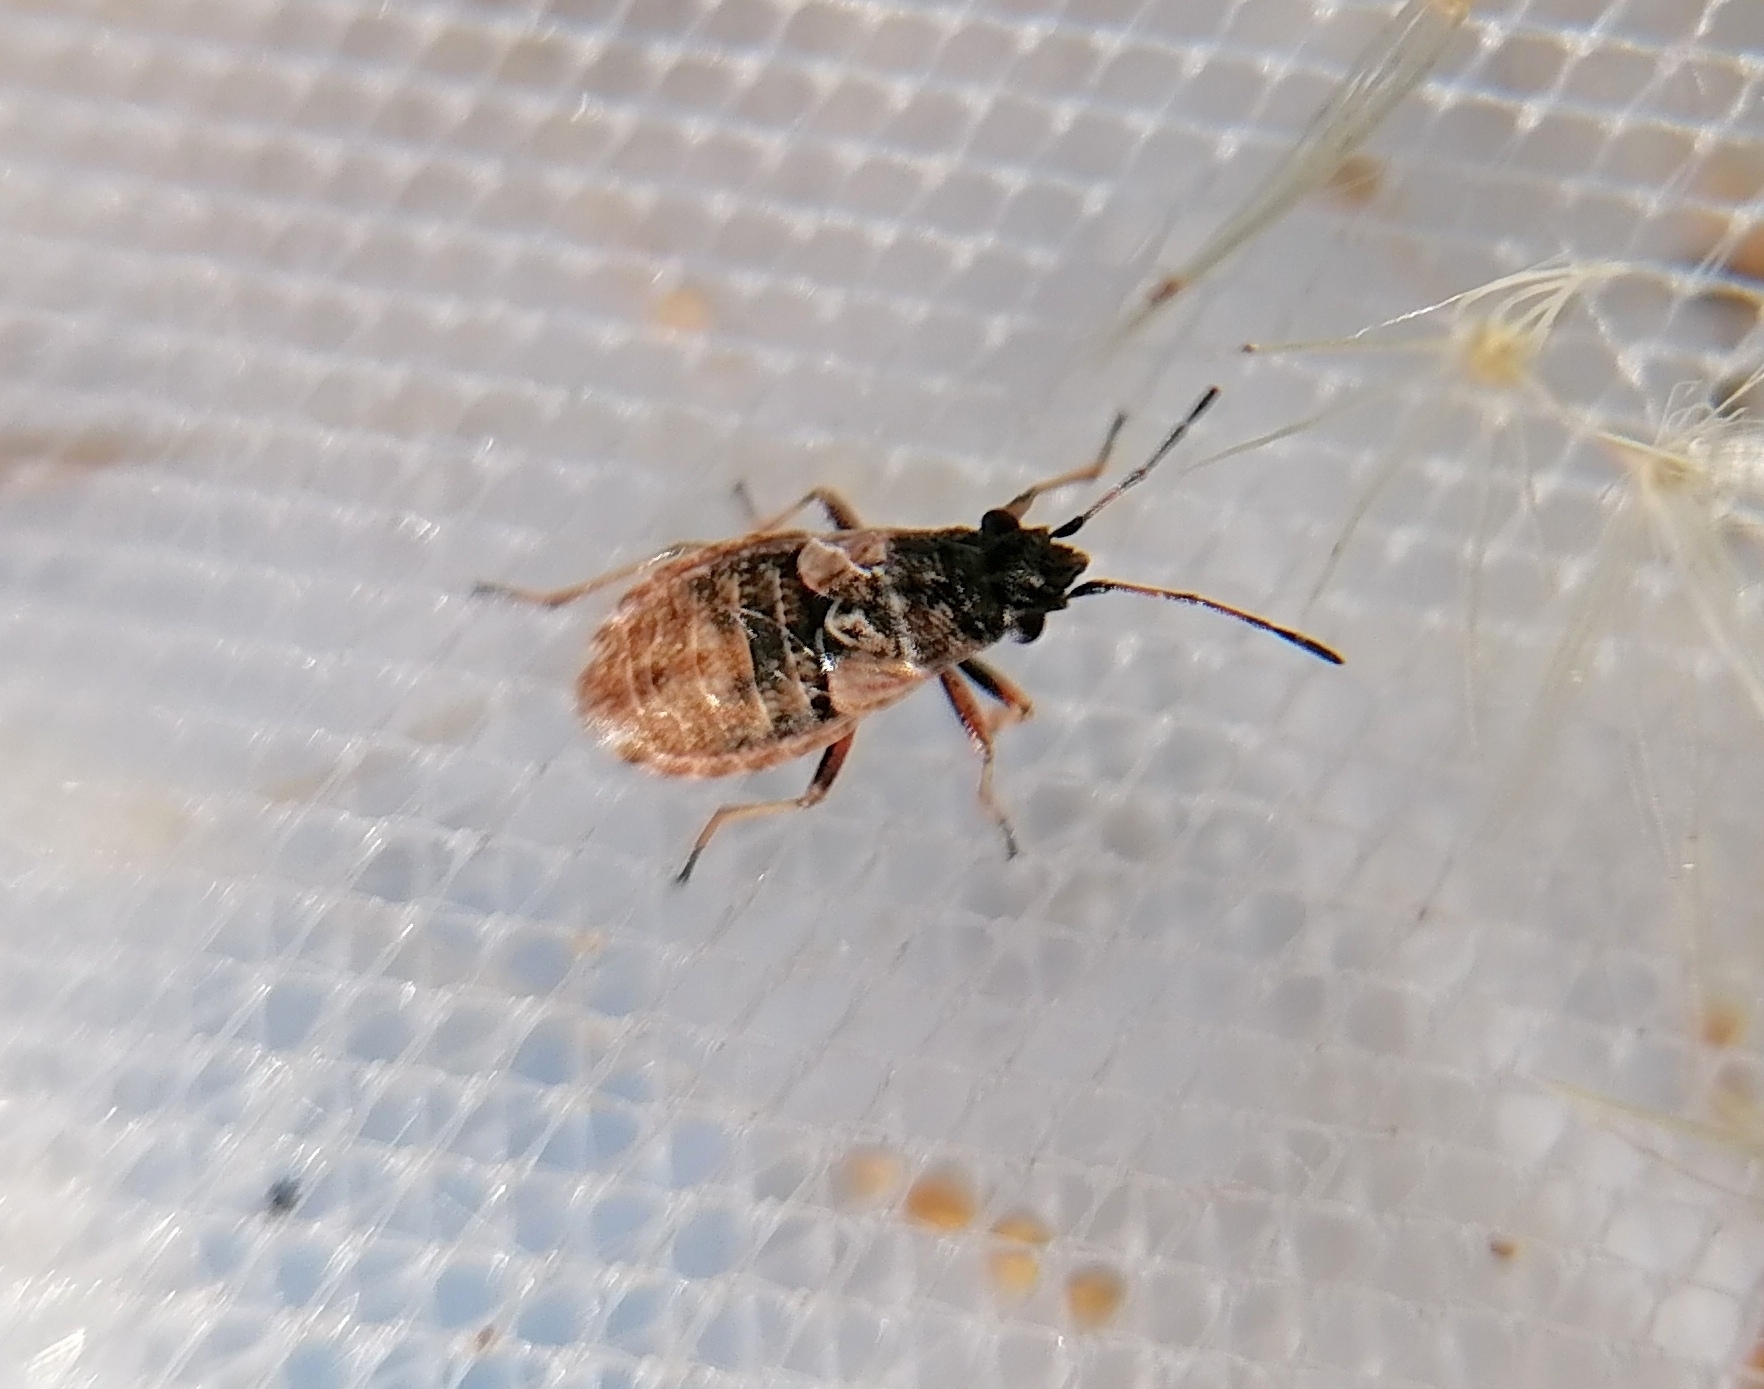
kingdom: Animalia
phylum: Arthropoda
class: Insecta
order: Hemiptera
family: Lygaeidae
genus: Nithecus
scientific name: Nithecus jacobaeae
